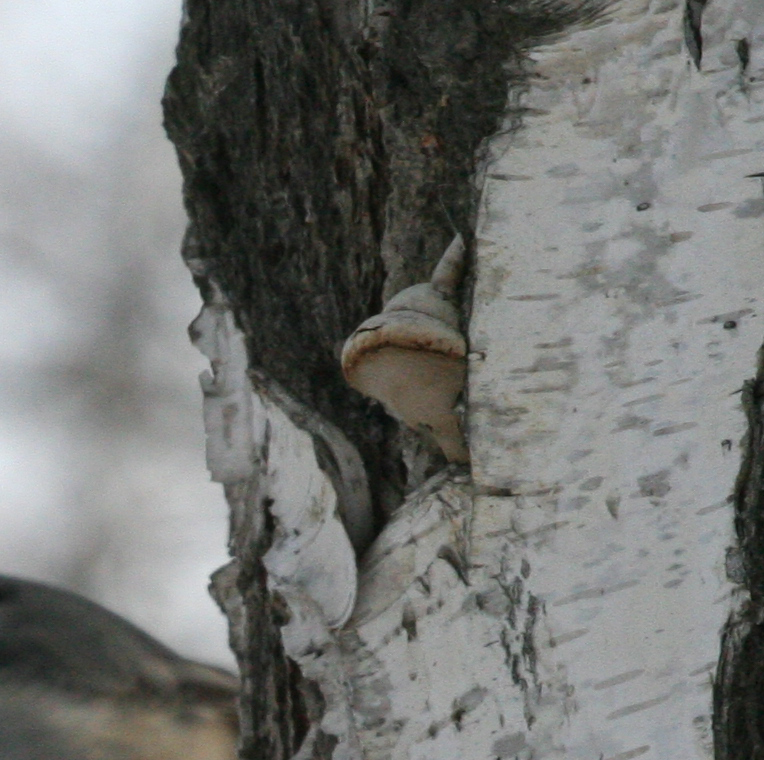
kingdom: Fungi
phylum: Basidiomycota
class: Agaricomycetes
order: Polyporales
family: Polyporaceae
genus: Fomes
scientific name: Fomes fomentarius
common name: Hoof fungus
